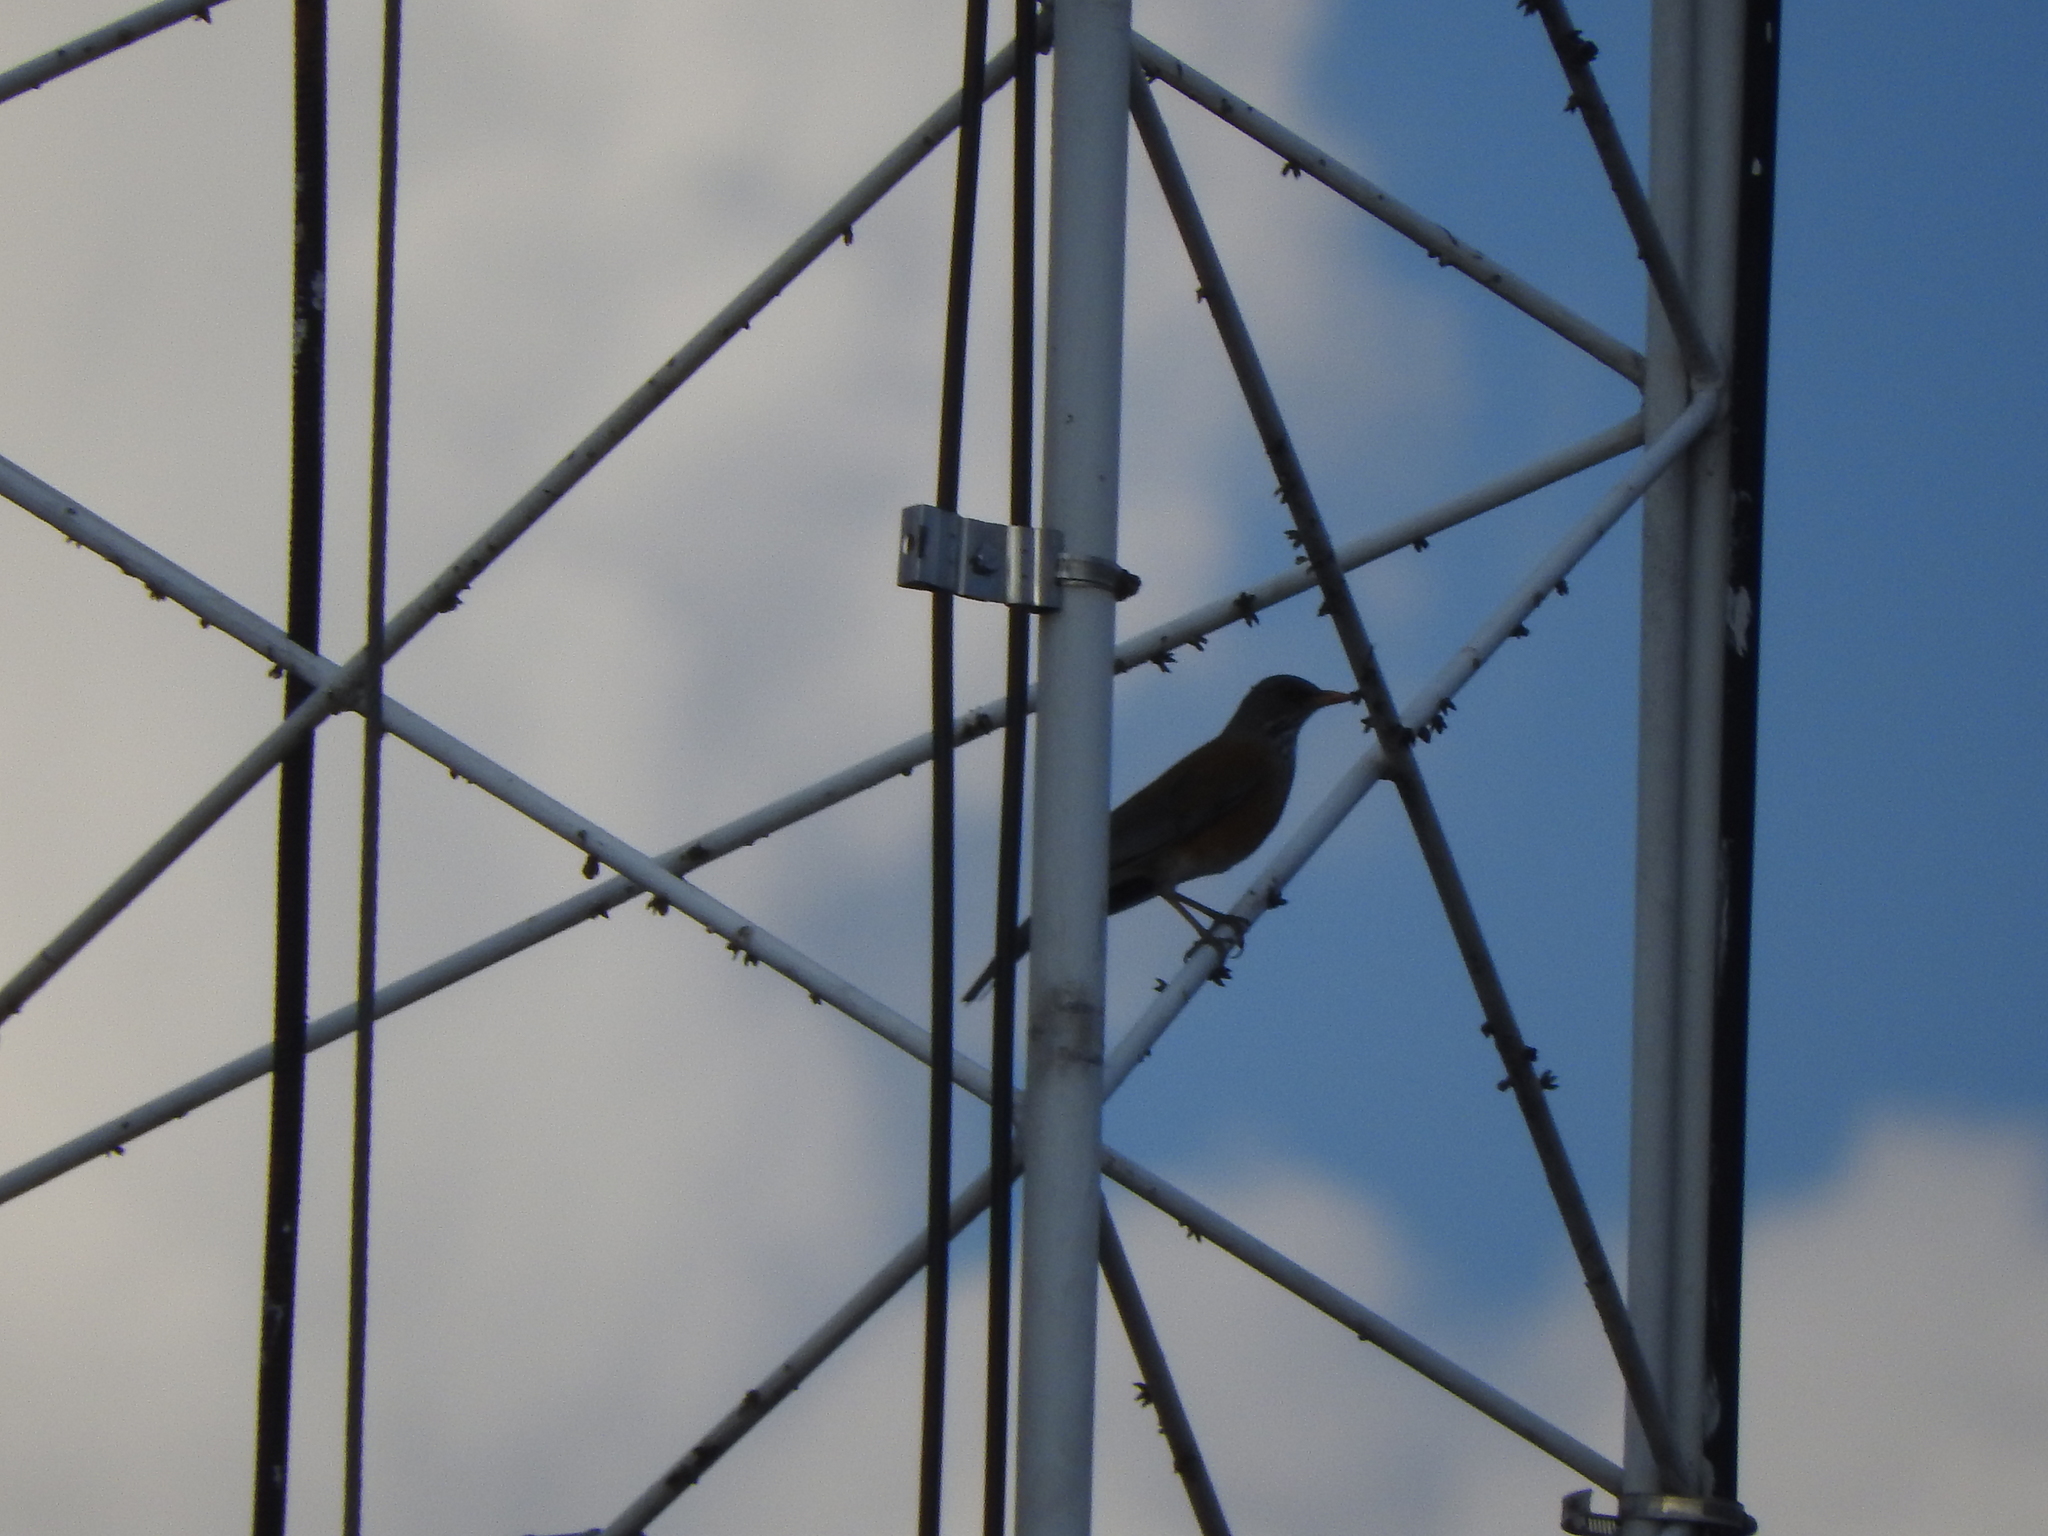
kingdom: Animalia
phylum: Chordata
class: Aves
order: Passeriformes
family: Turdidae
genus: Turdus
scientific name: Turdus rufopalliatus
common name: Rufous-backed robin
